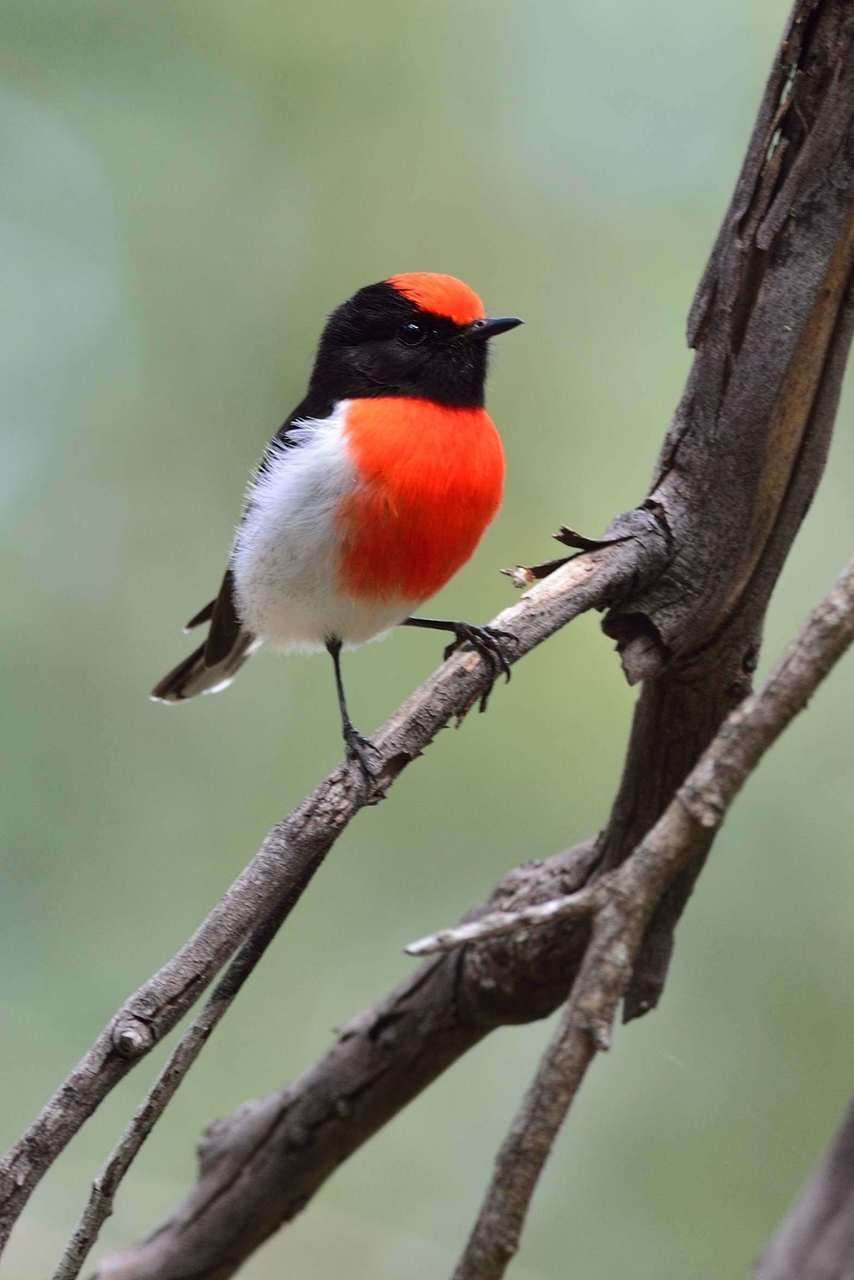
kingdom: Animalia
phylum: Chordata
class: Aves
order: Passeriformes
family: Petroicidae
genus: Petroica
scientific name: Petroica goodenovii
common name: Red-capped robin
